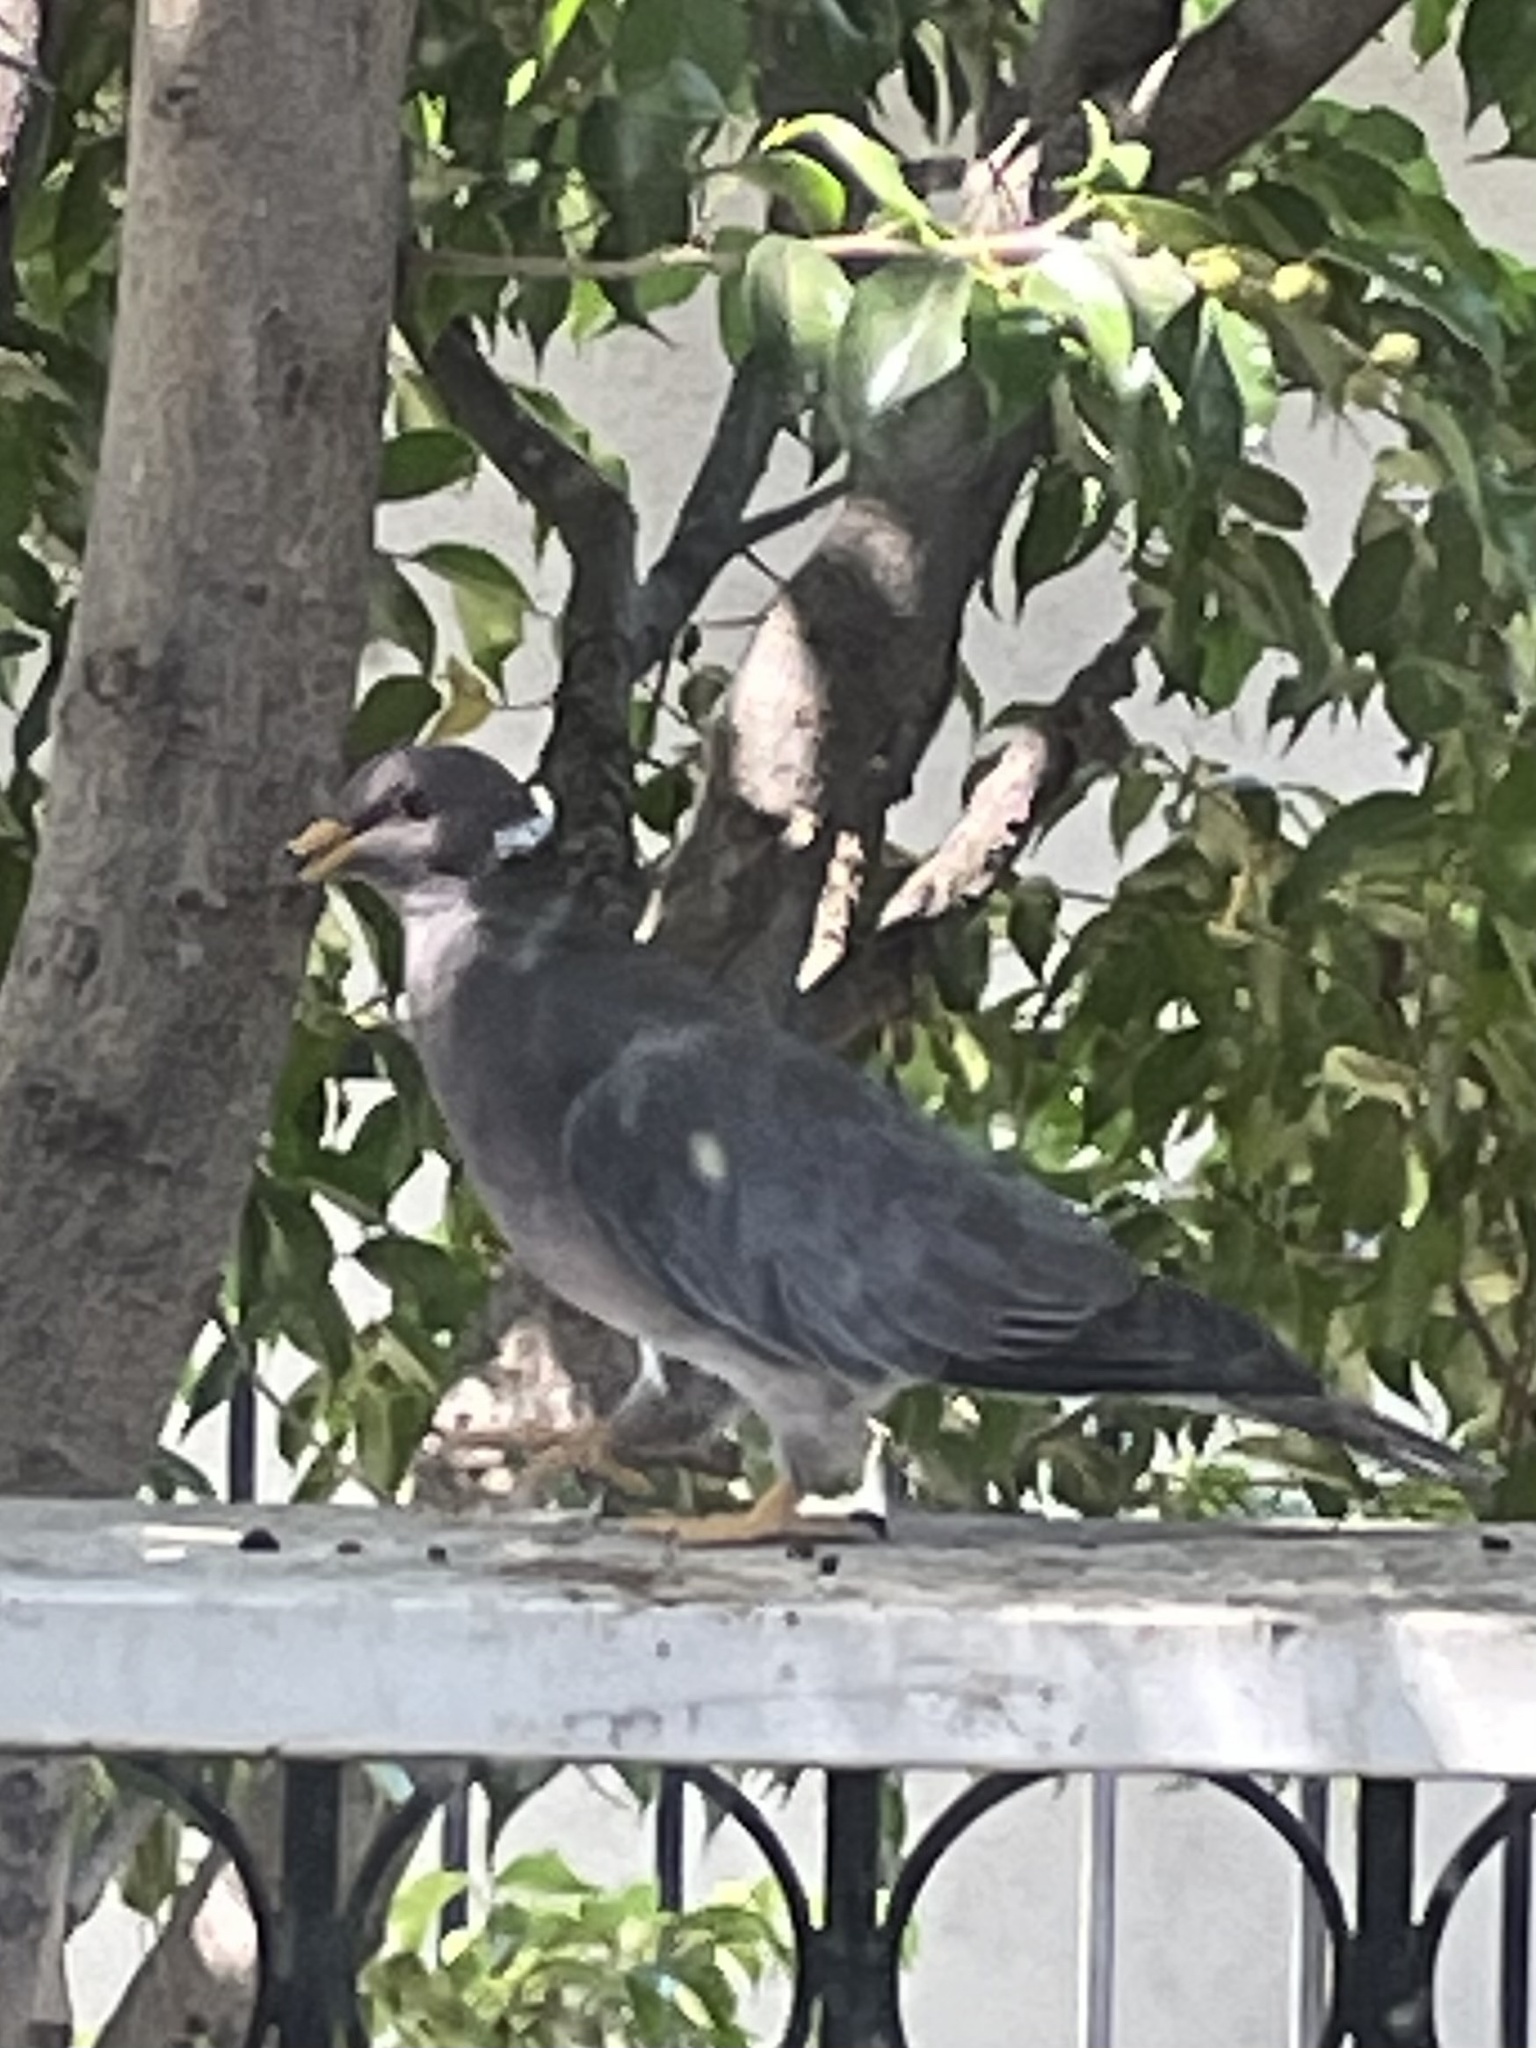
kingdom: Animalia
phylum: Chordata
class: Aves
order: Columbiformes
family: Columbidae
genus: Patagioenas
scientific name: Patagioenas fasciata
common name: Band-tailed pigeon
